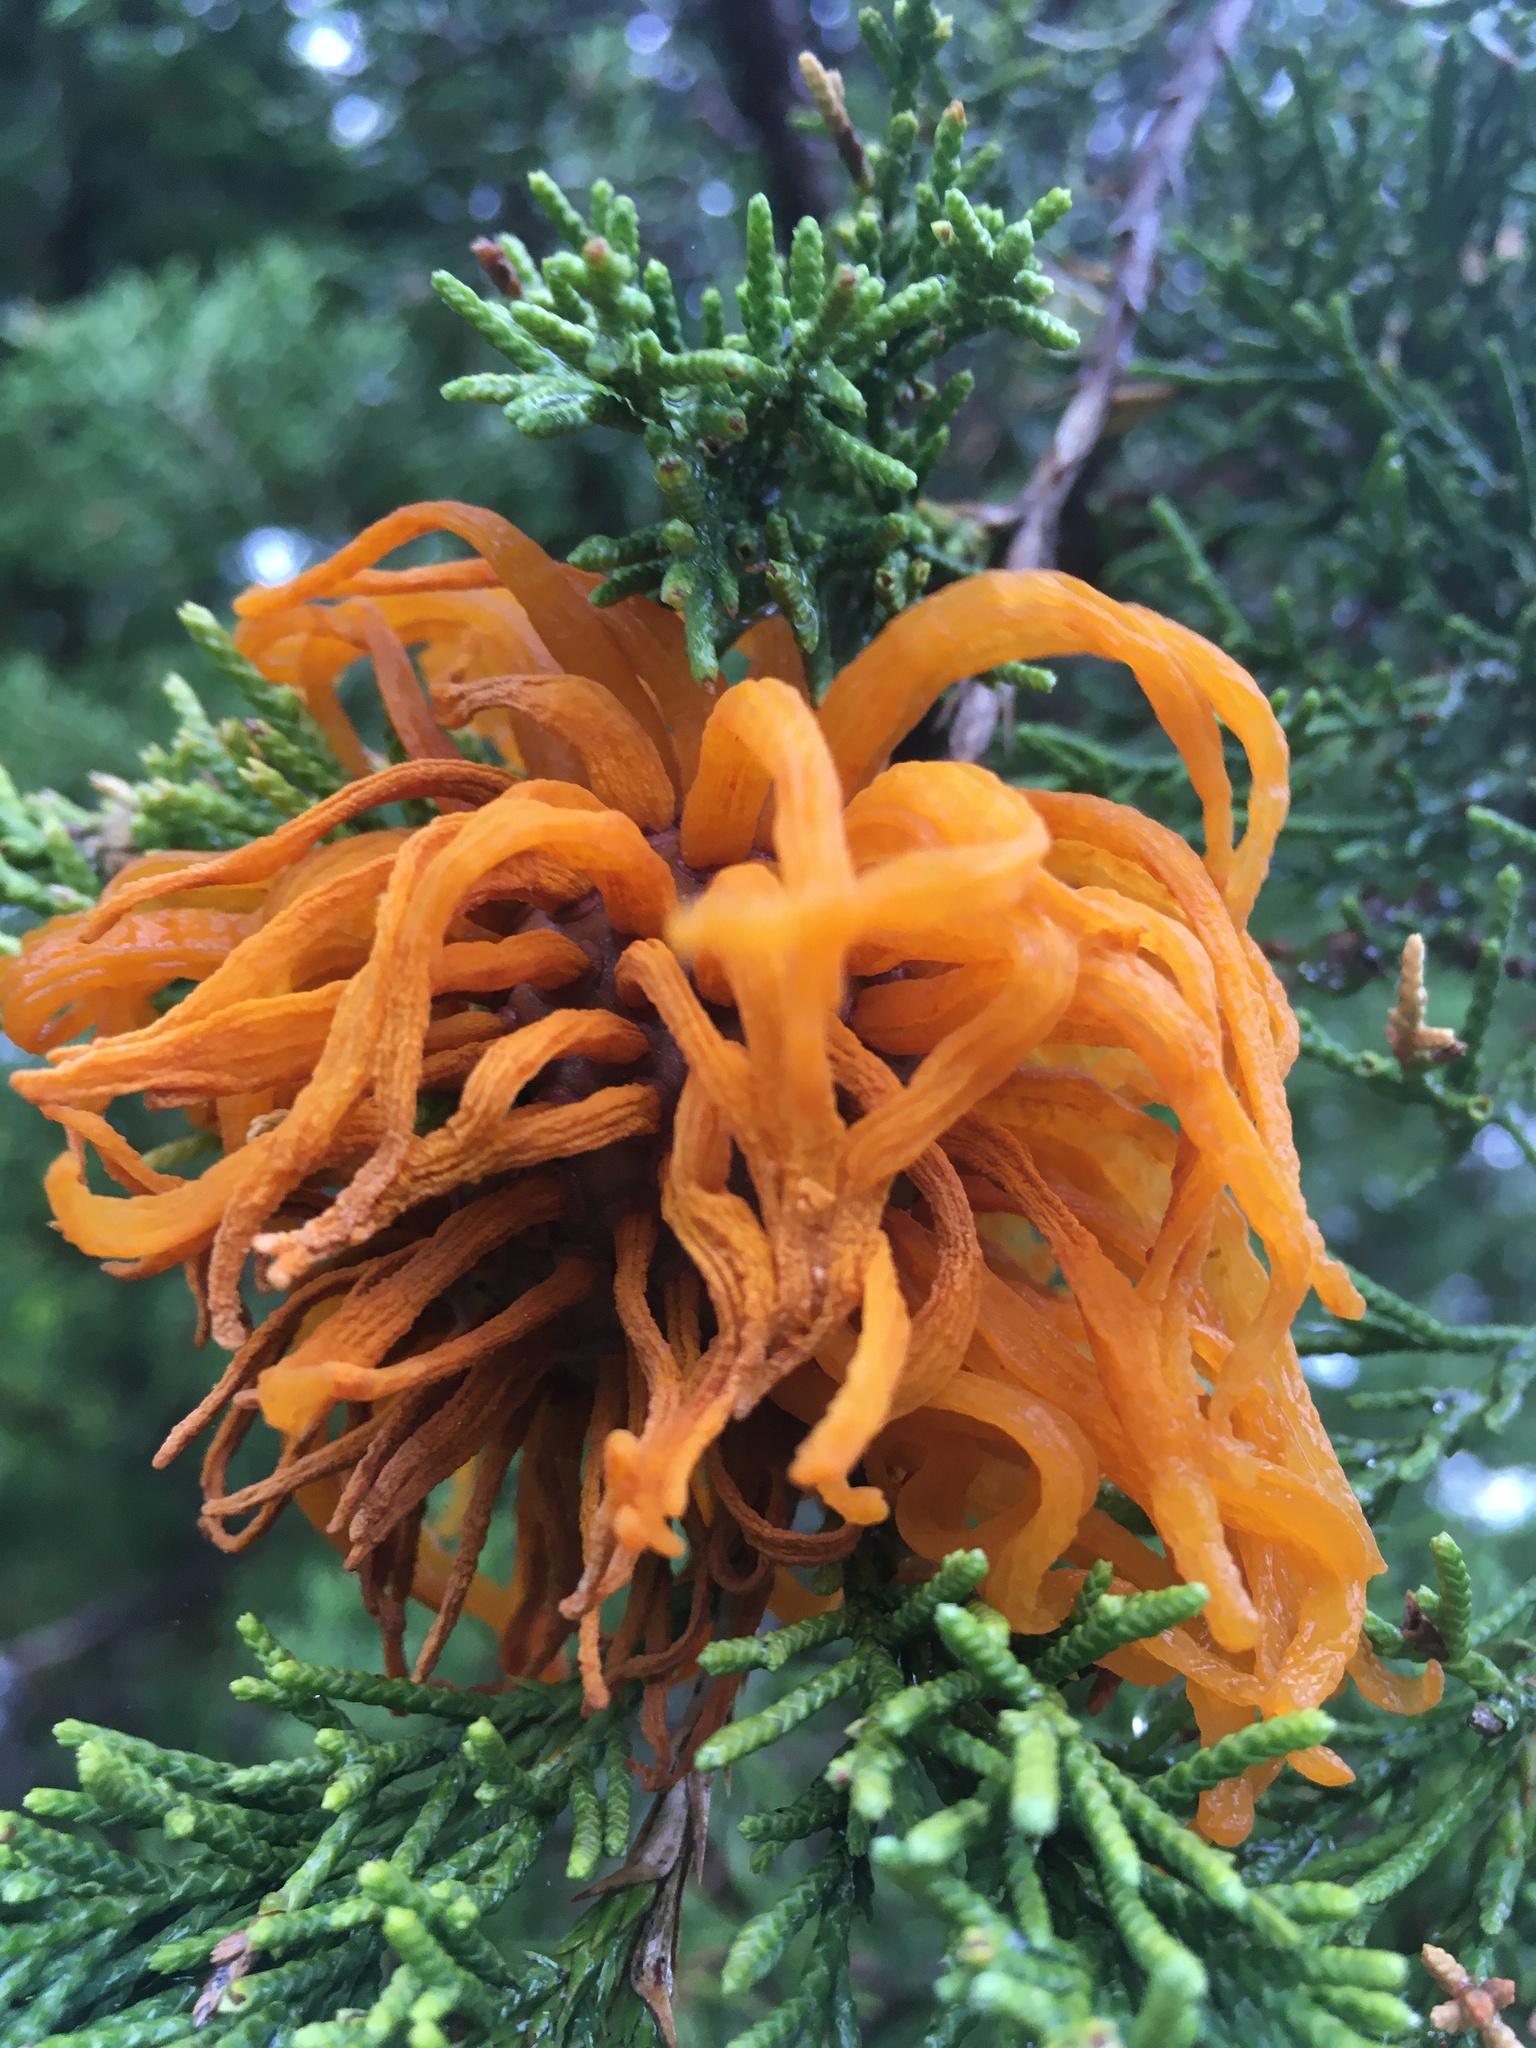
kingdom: Fungi
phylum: Basidiomycota
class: Pucciniomycetes
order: Pucciniales
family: Gymnosporangiaceae
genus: Gymnosporangium
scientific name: Gymnosporangium juniperi-virginianae
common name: Juniper-apple rust
